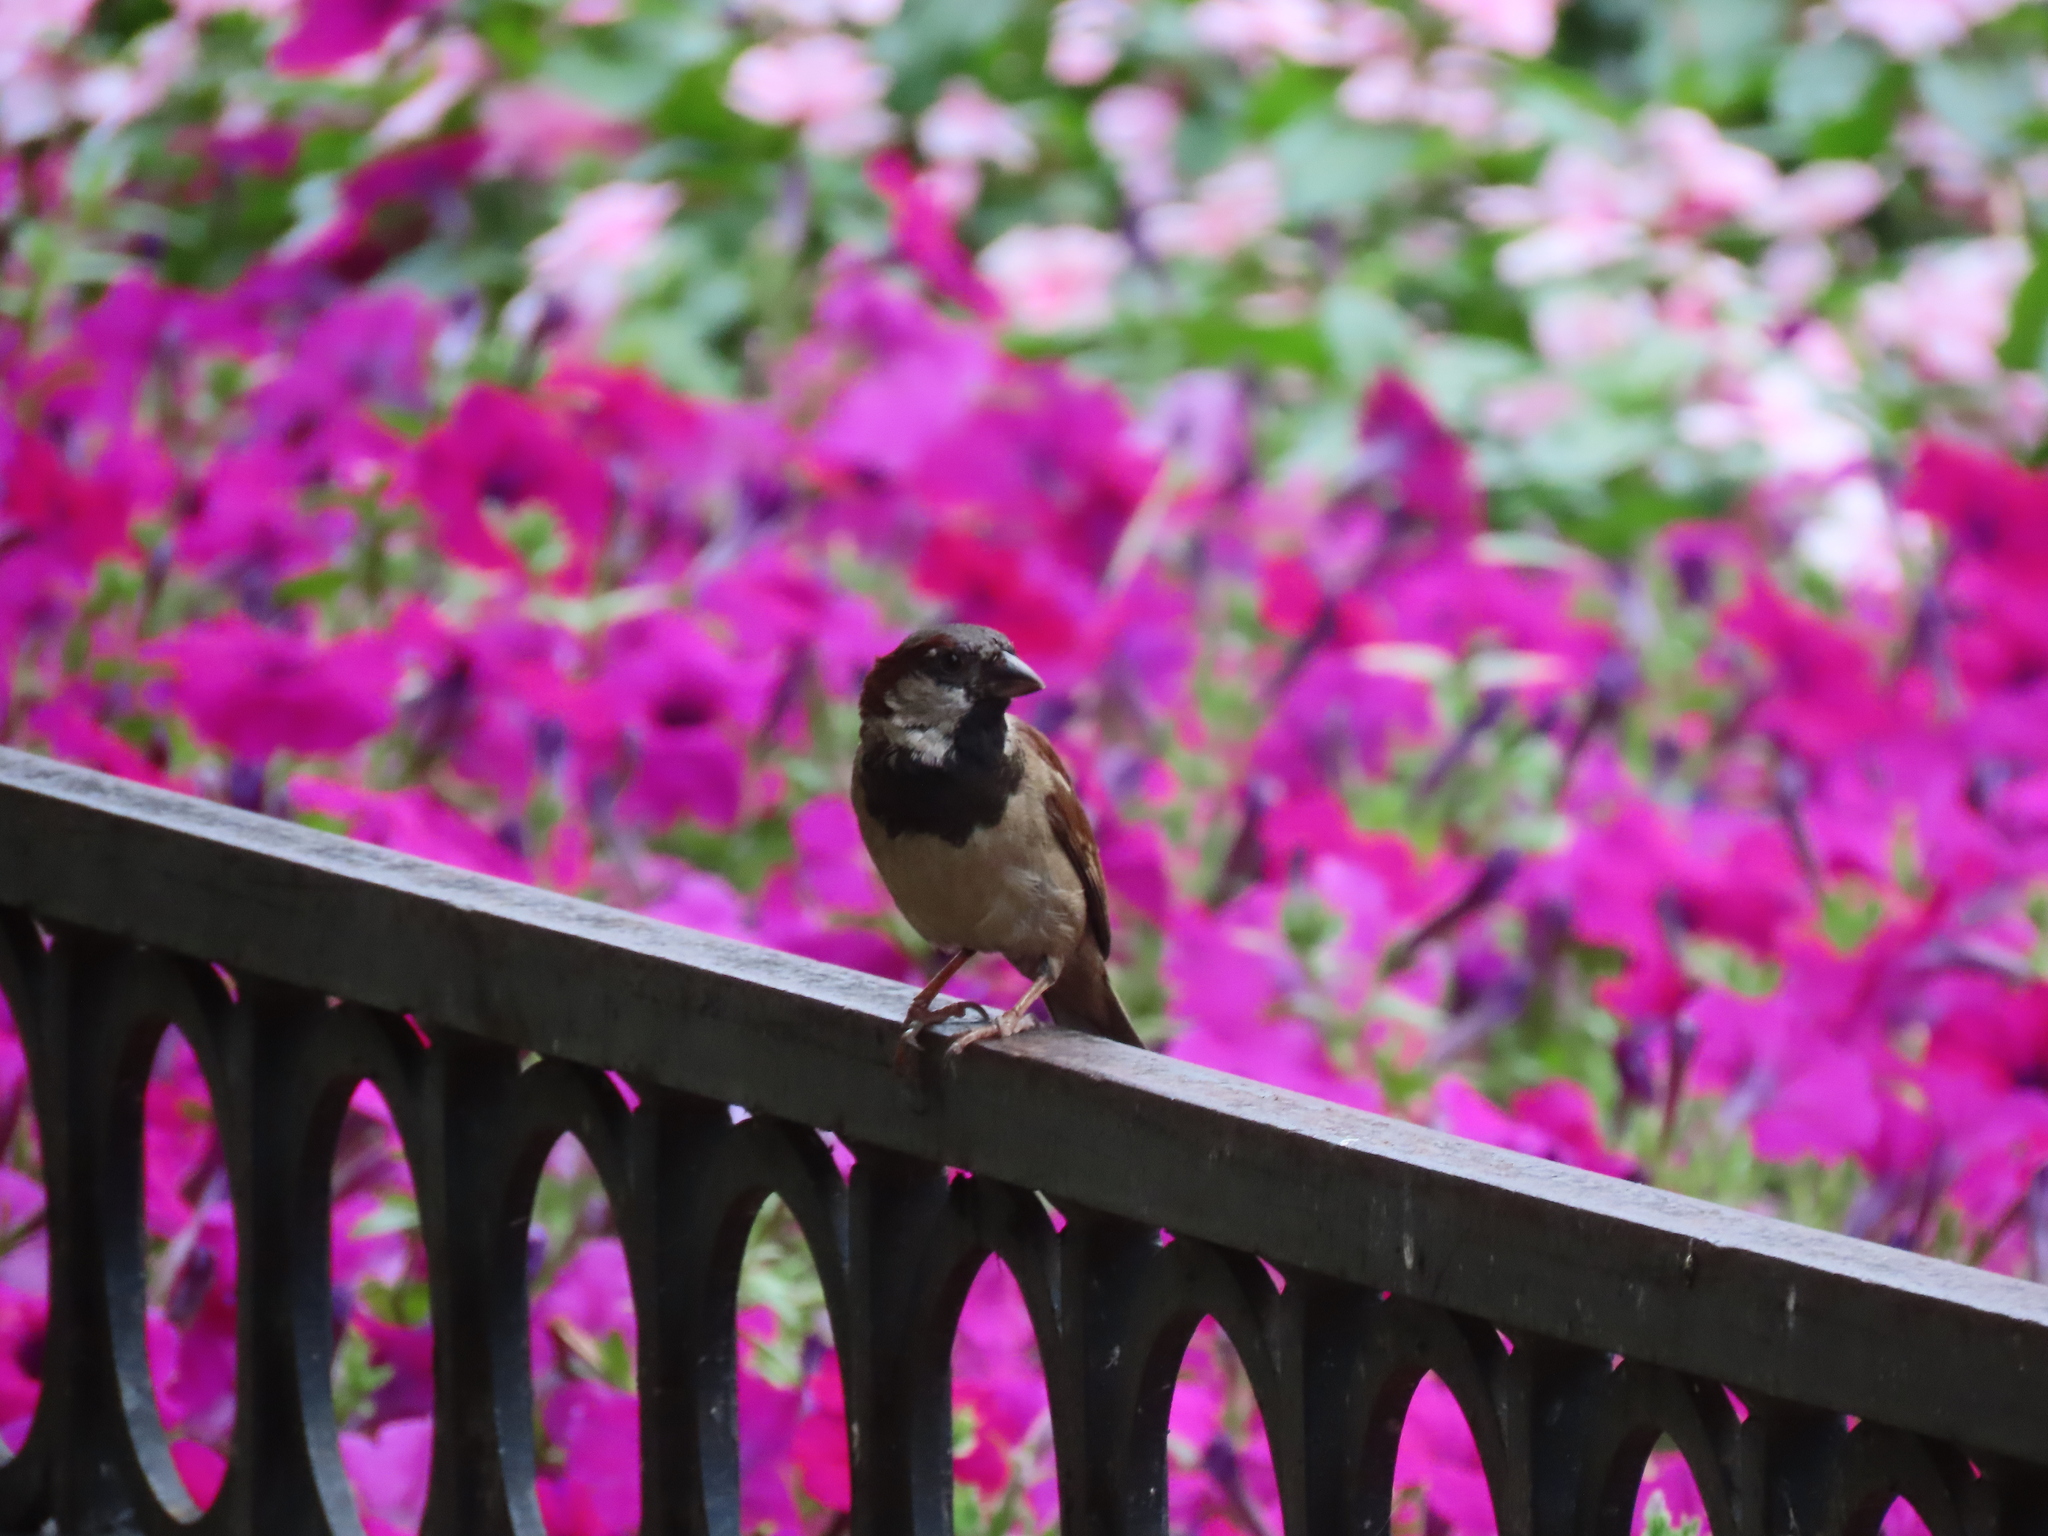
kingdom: Animalia
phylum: Chordata
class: Aves
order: Passeriformes
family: Passeridae
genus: Passer
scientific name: Passer domesticus
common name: House sparrow
